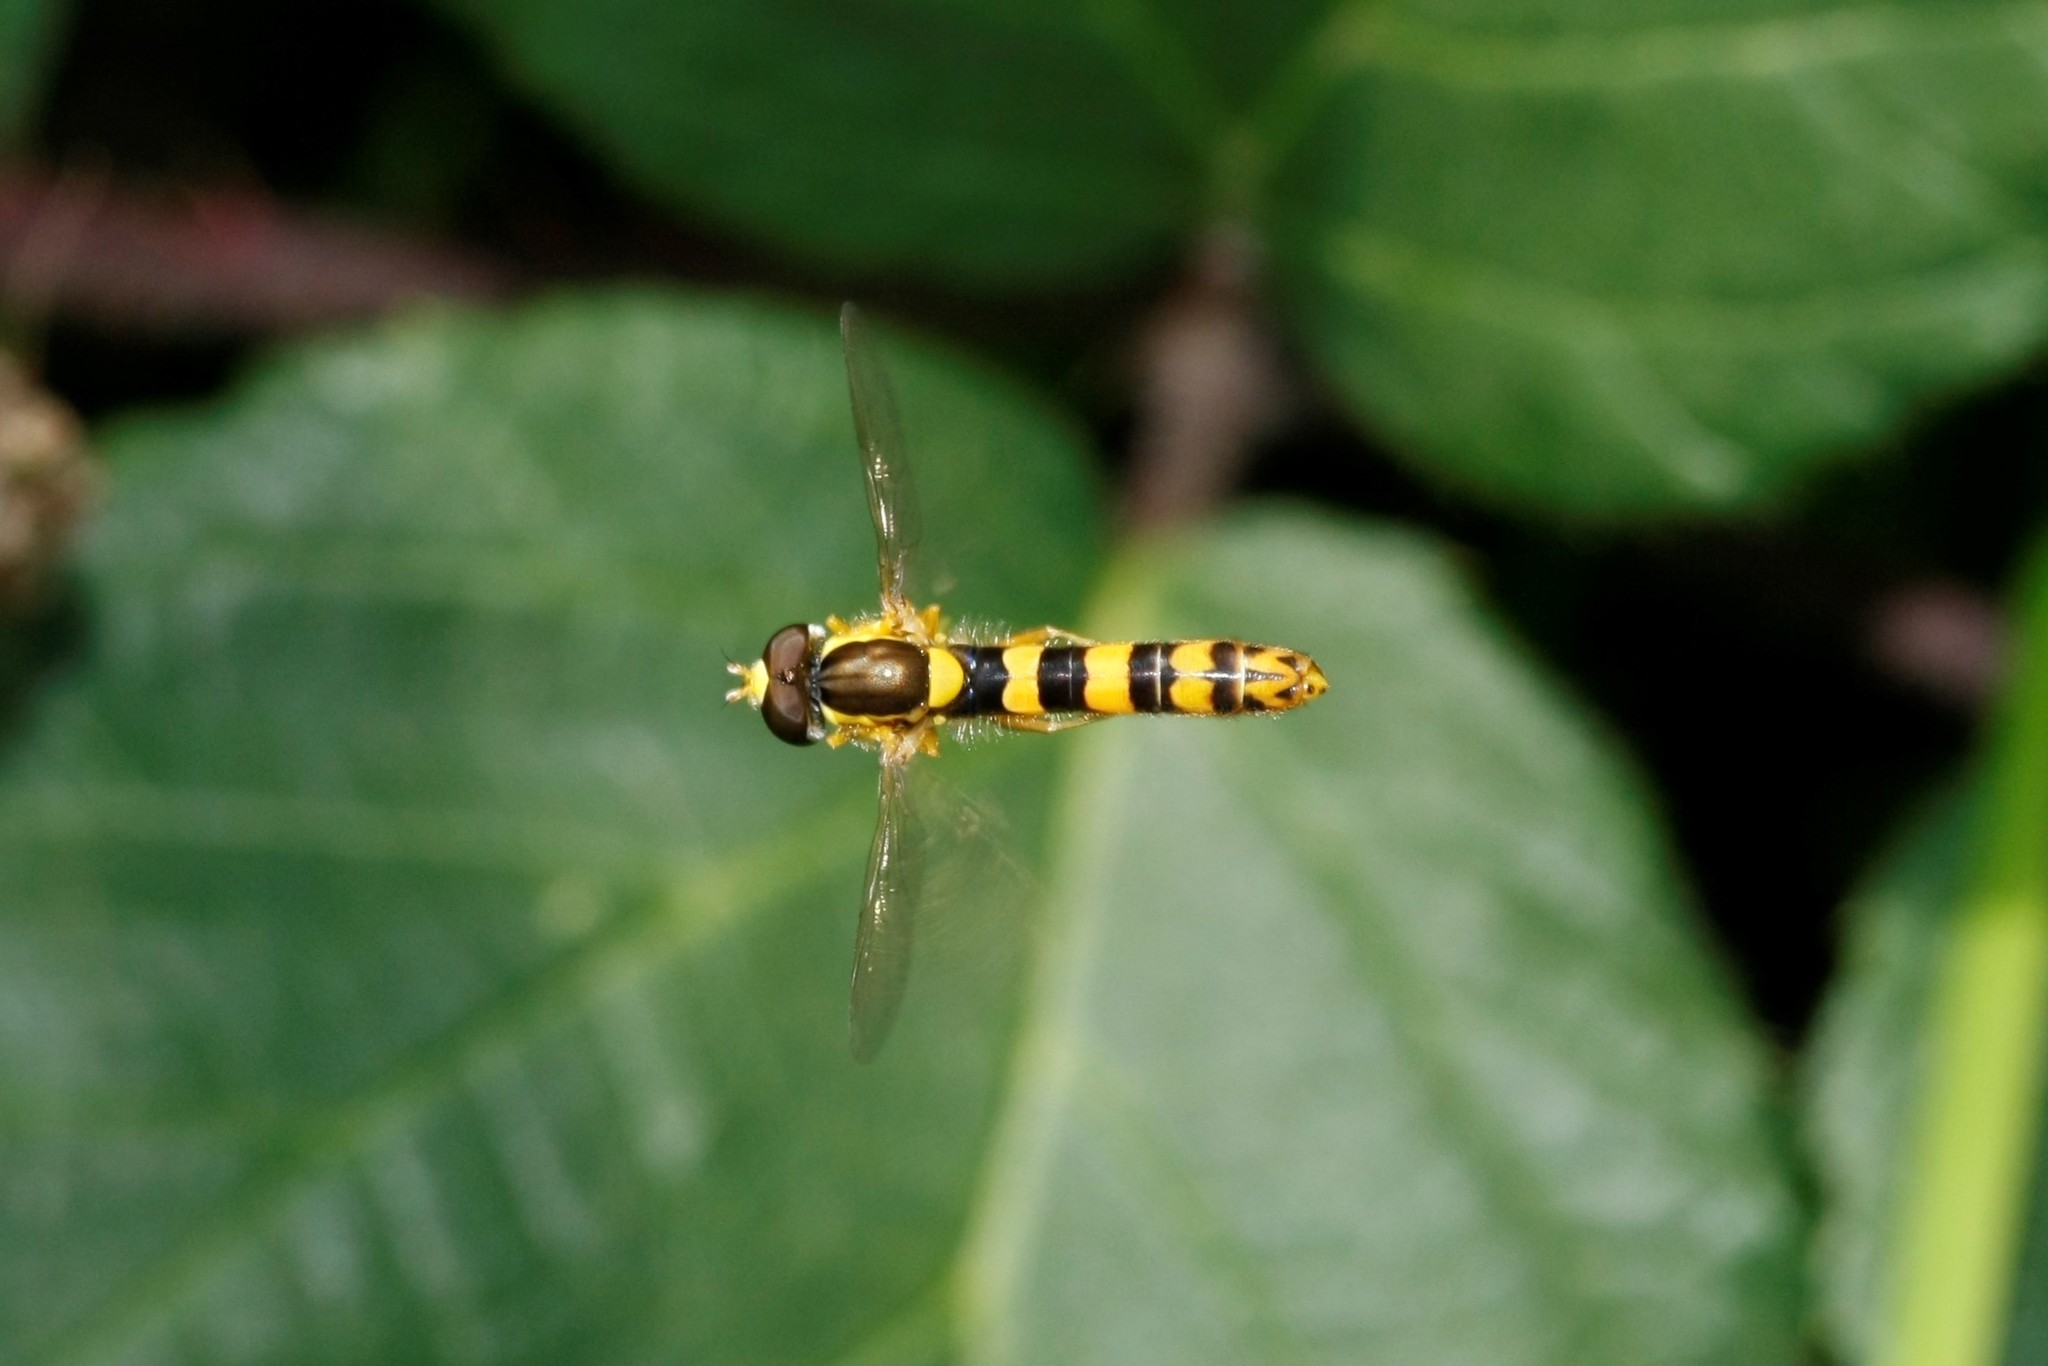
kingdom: Animalia
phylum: Arthropoda
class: Insecta
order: Diptera
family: Syrphidae
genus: Sphaerophoria
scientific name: Sphaerophoria scripta
